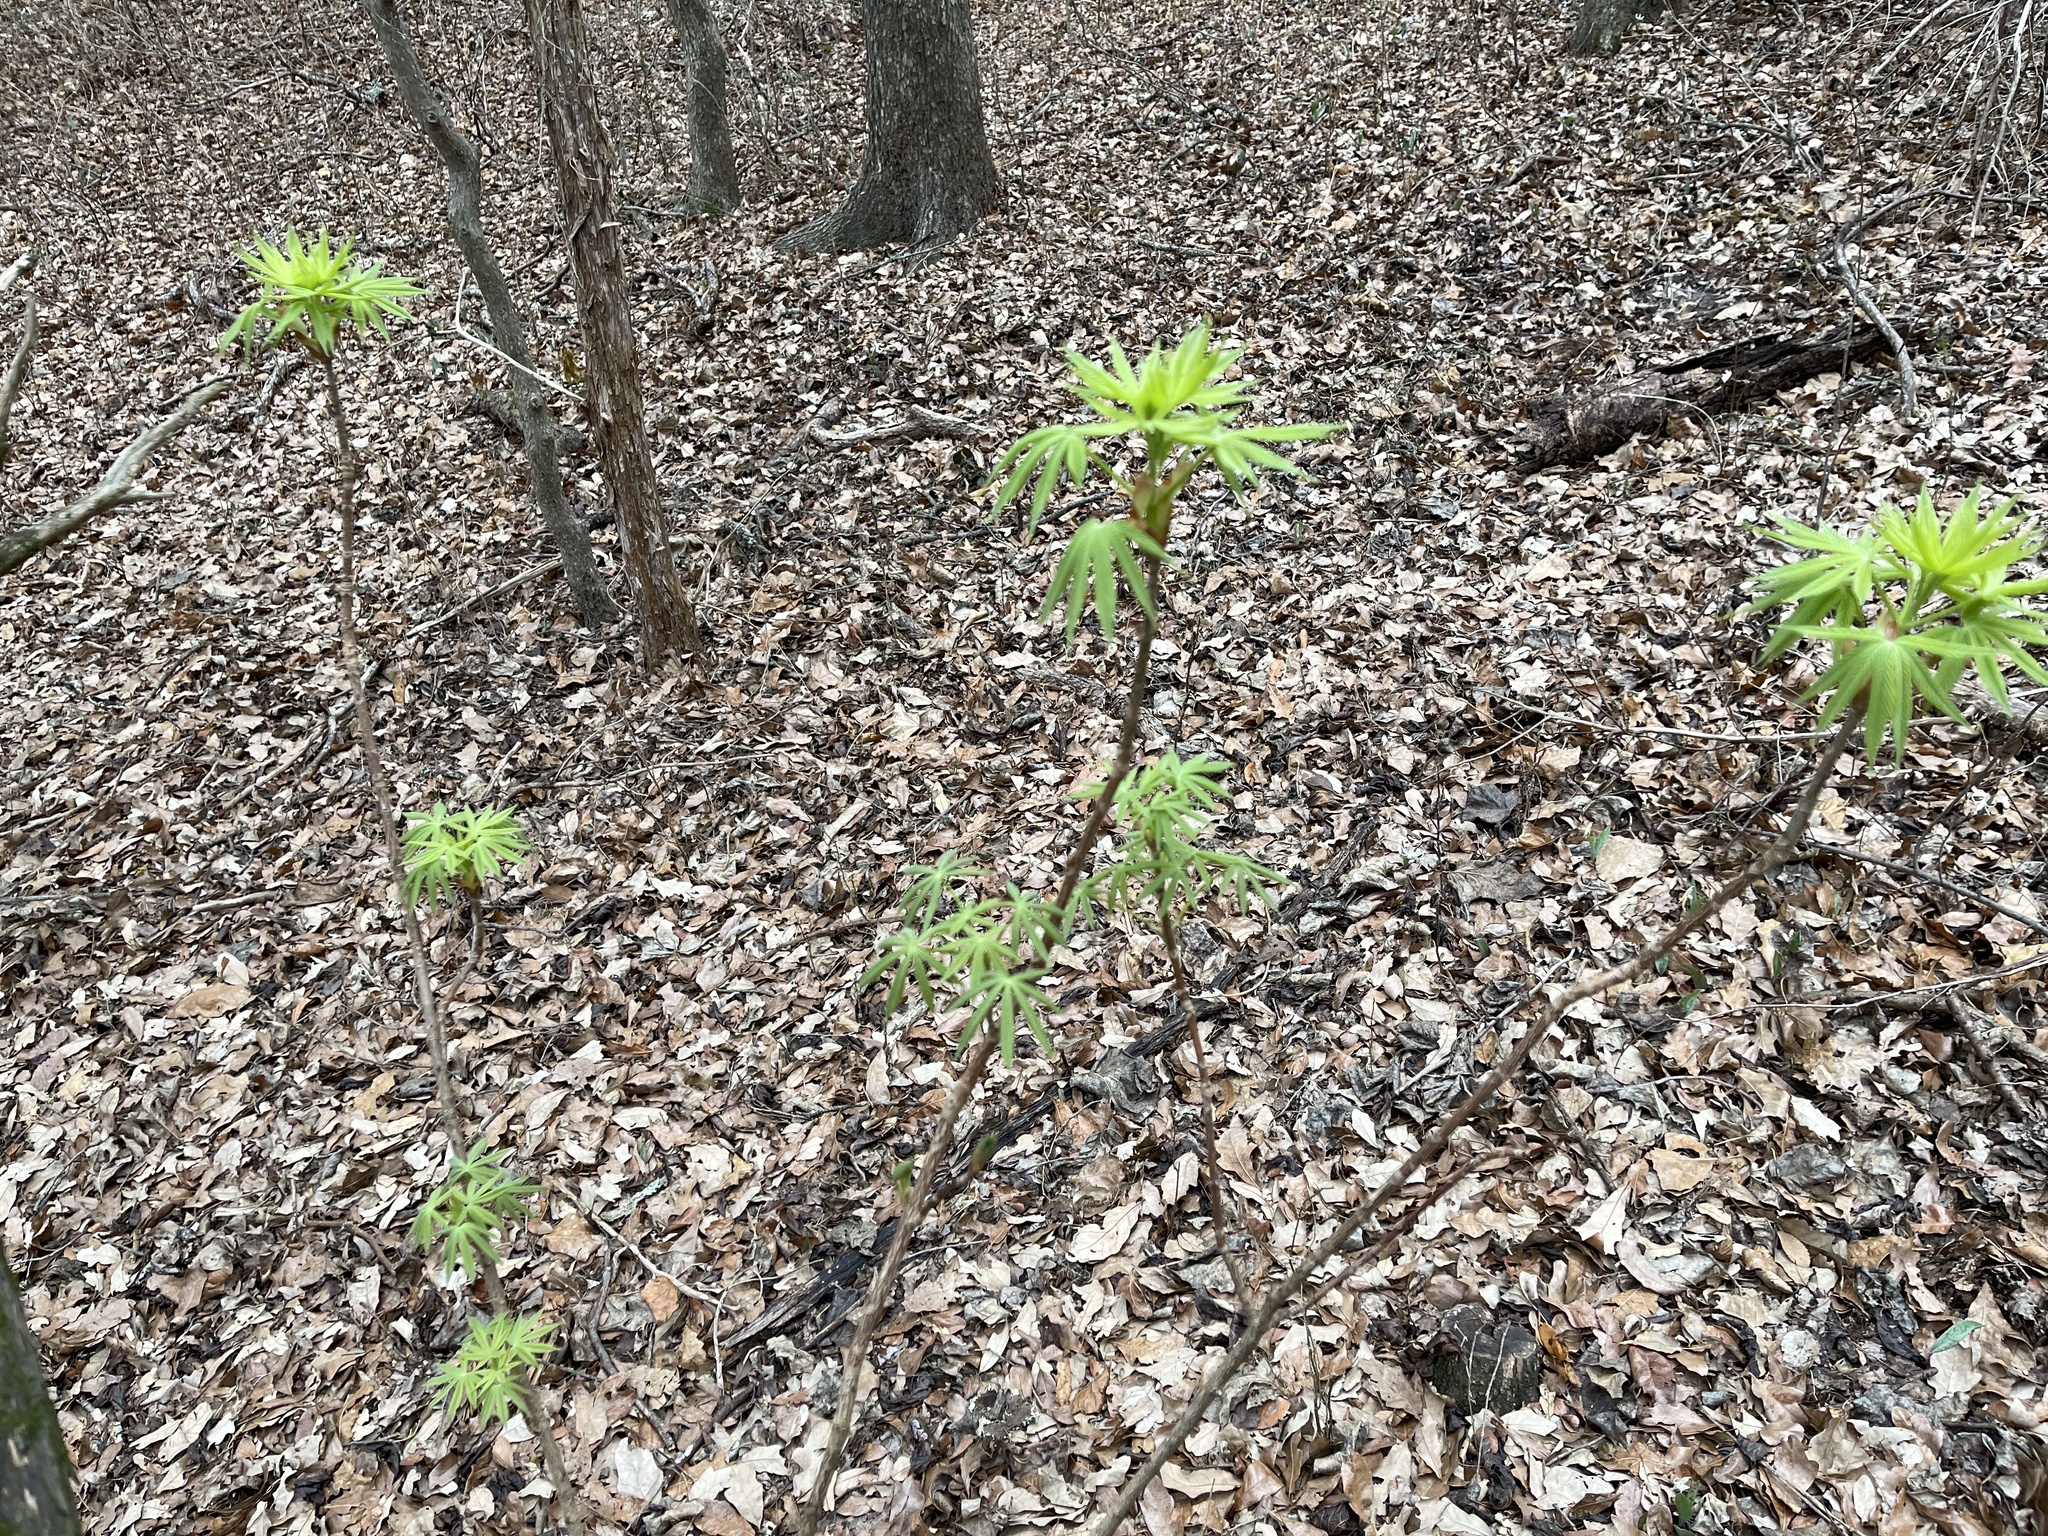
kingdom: Plantae
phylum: Tracheophyta
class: Magnoliopsida
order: Sapindales
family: Sapindaceae
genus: Aesculus
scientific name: Aesculus glabra
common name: Ohio buckeye
